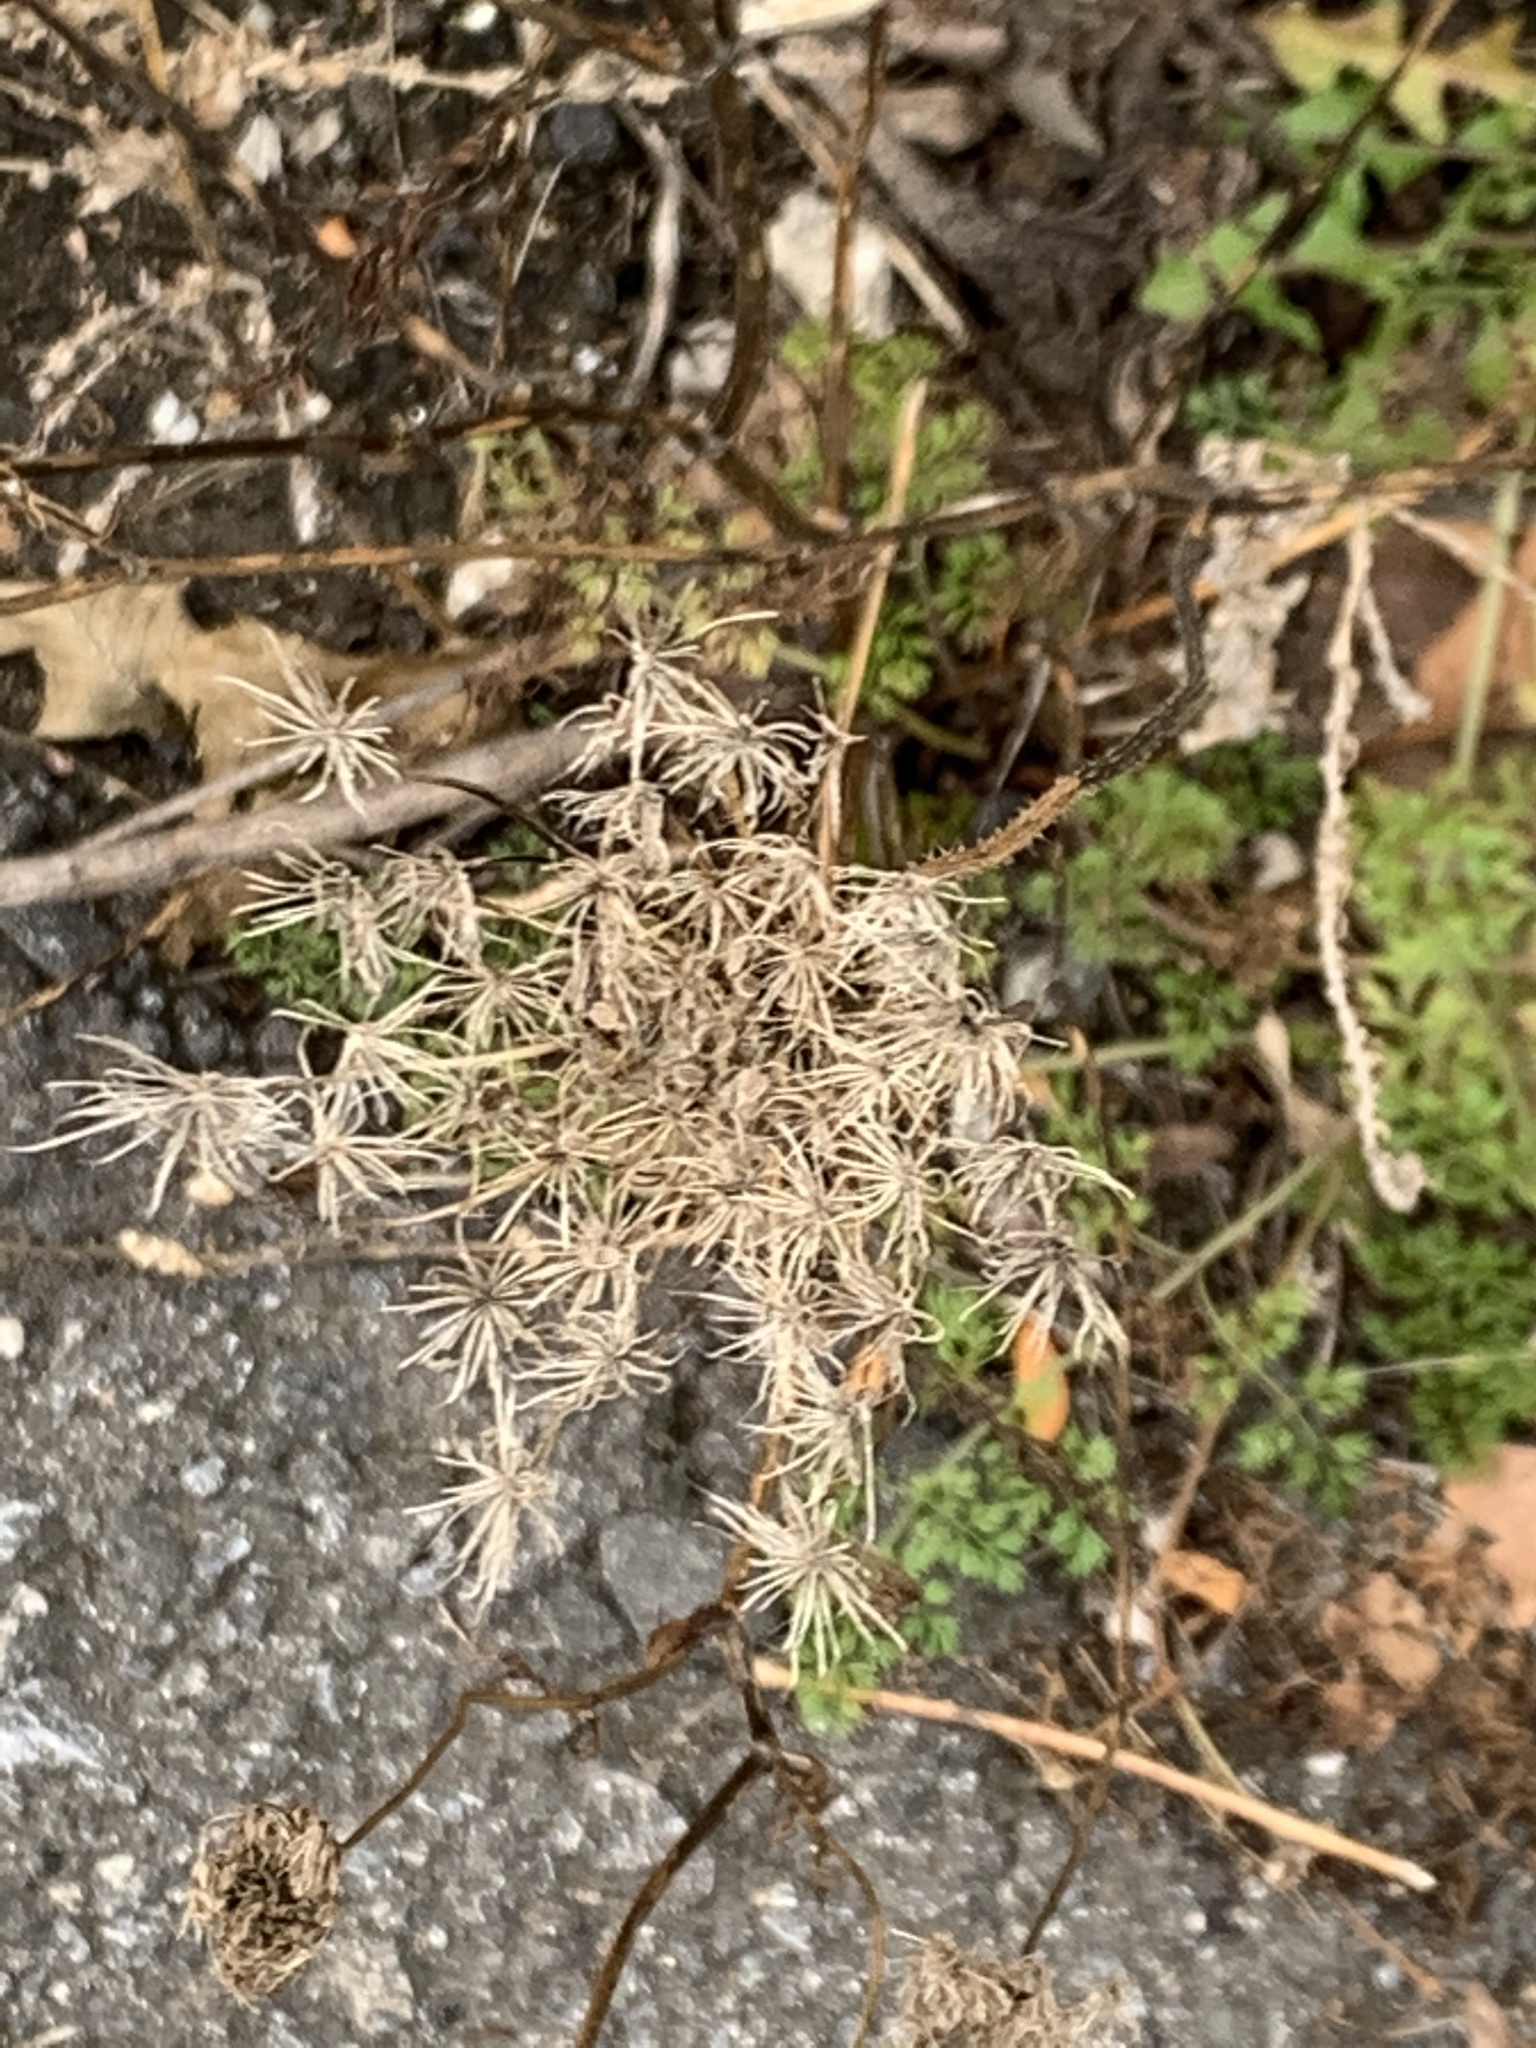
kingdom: Plantae
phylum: Tracheophyta
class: Magnoliopsida
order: Apiales
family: Apiaceae
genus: Daucus
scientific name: Daucus carota
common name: Wild carrot
